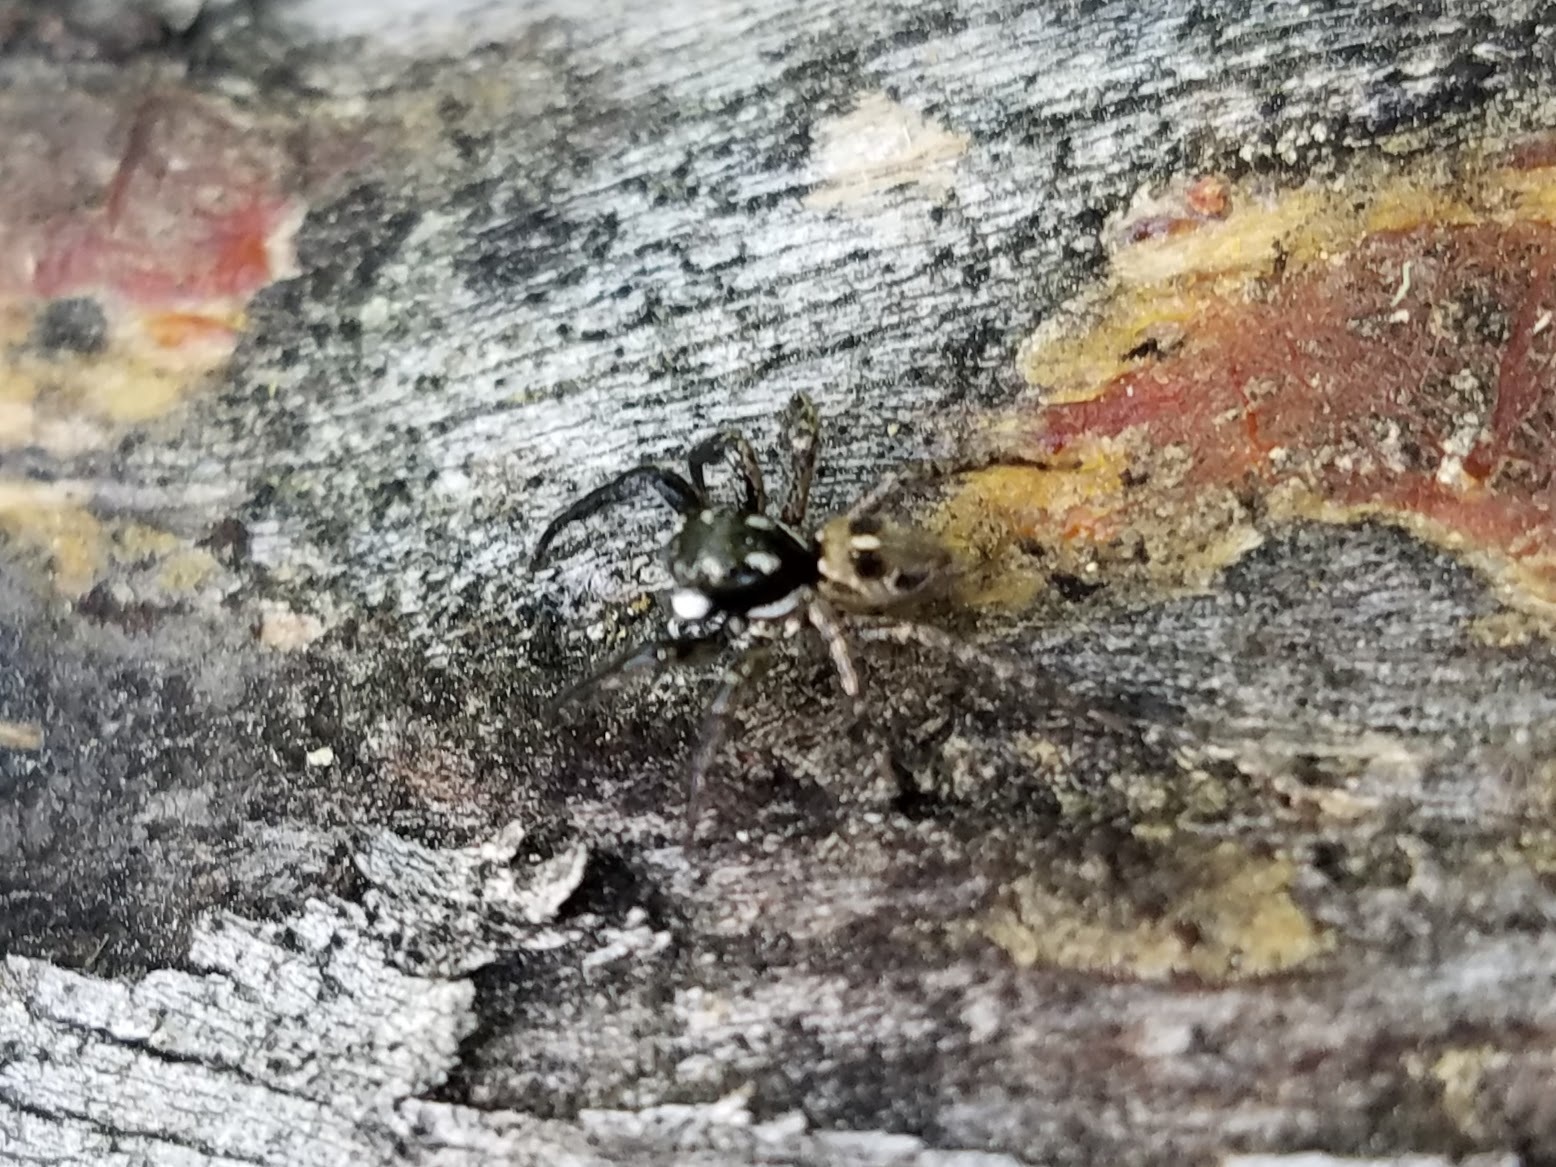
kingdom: Animalia
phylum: Arthropoda
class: Arachnida
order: Araneae
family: Salticidae
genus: Anasaitis
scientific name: Anasaitis canosa
